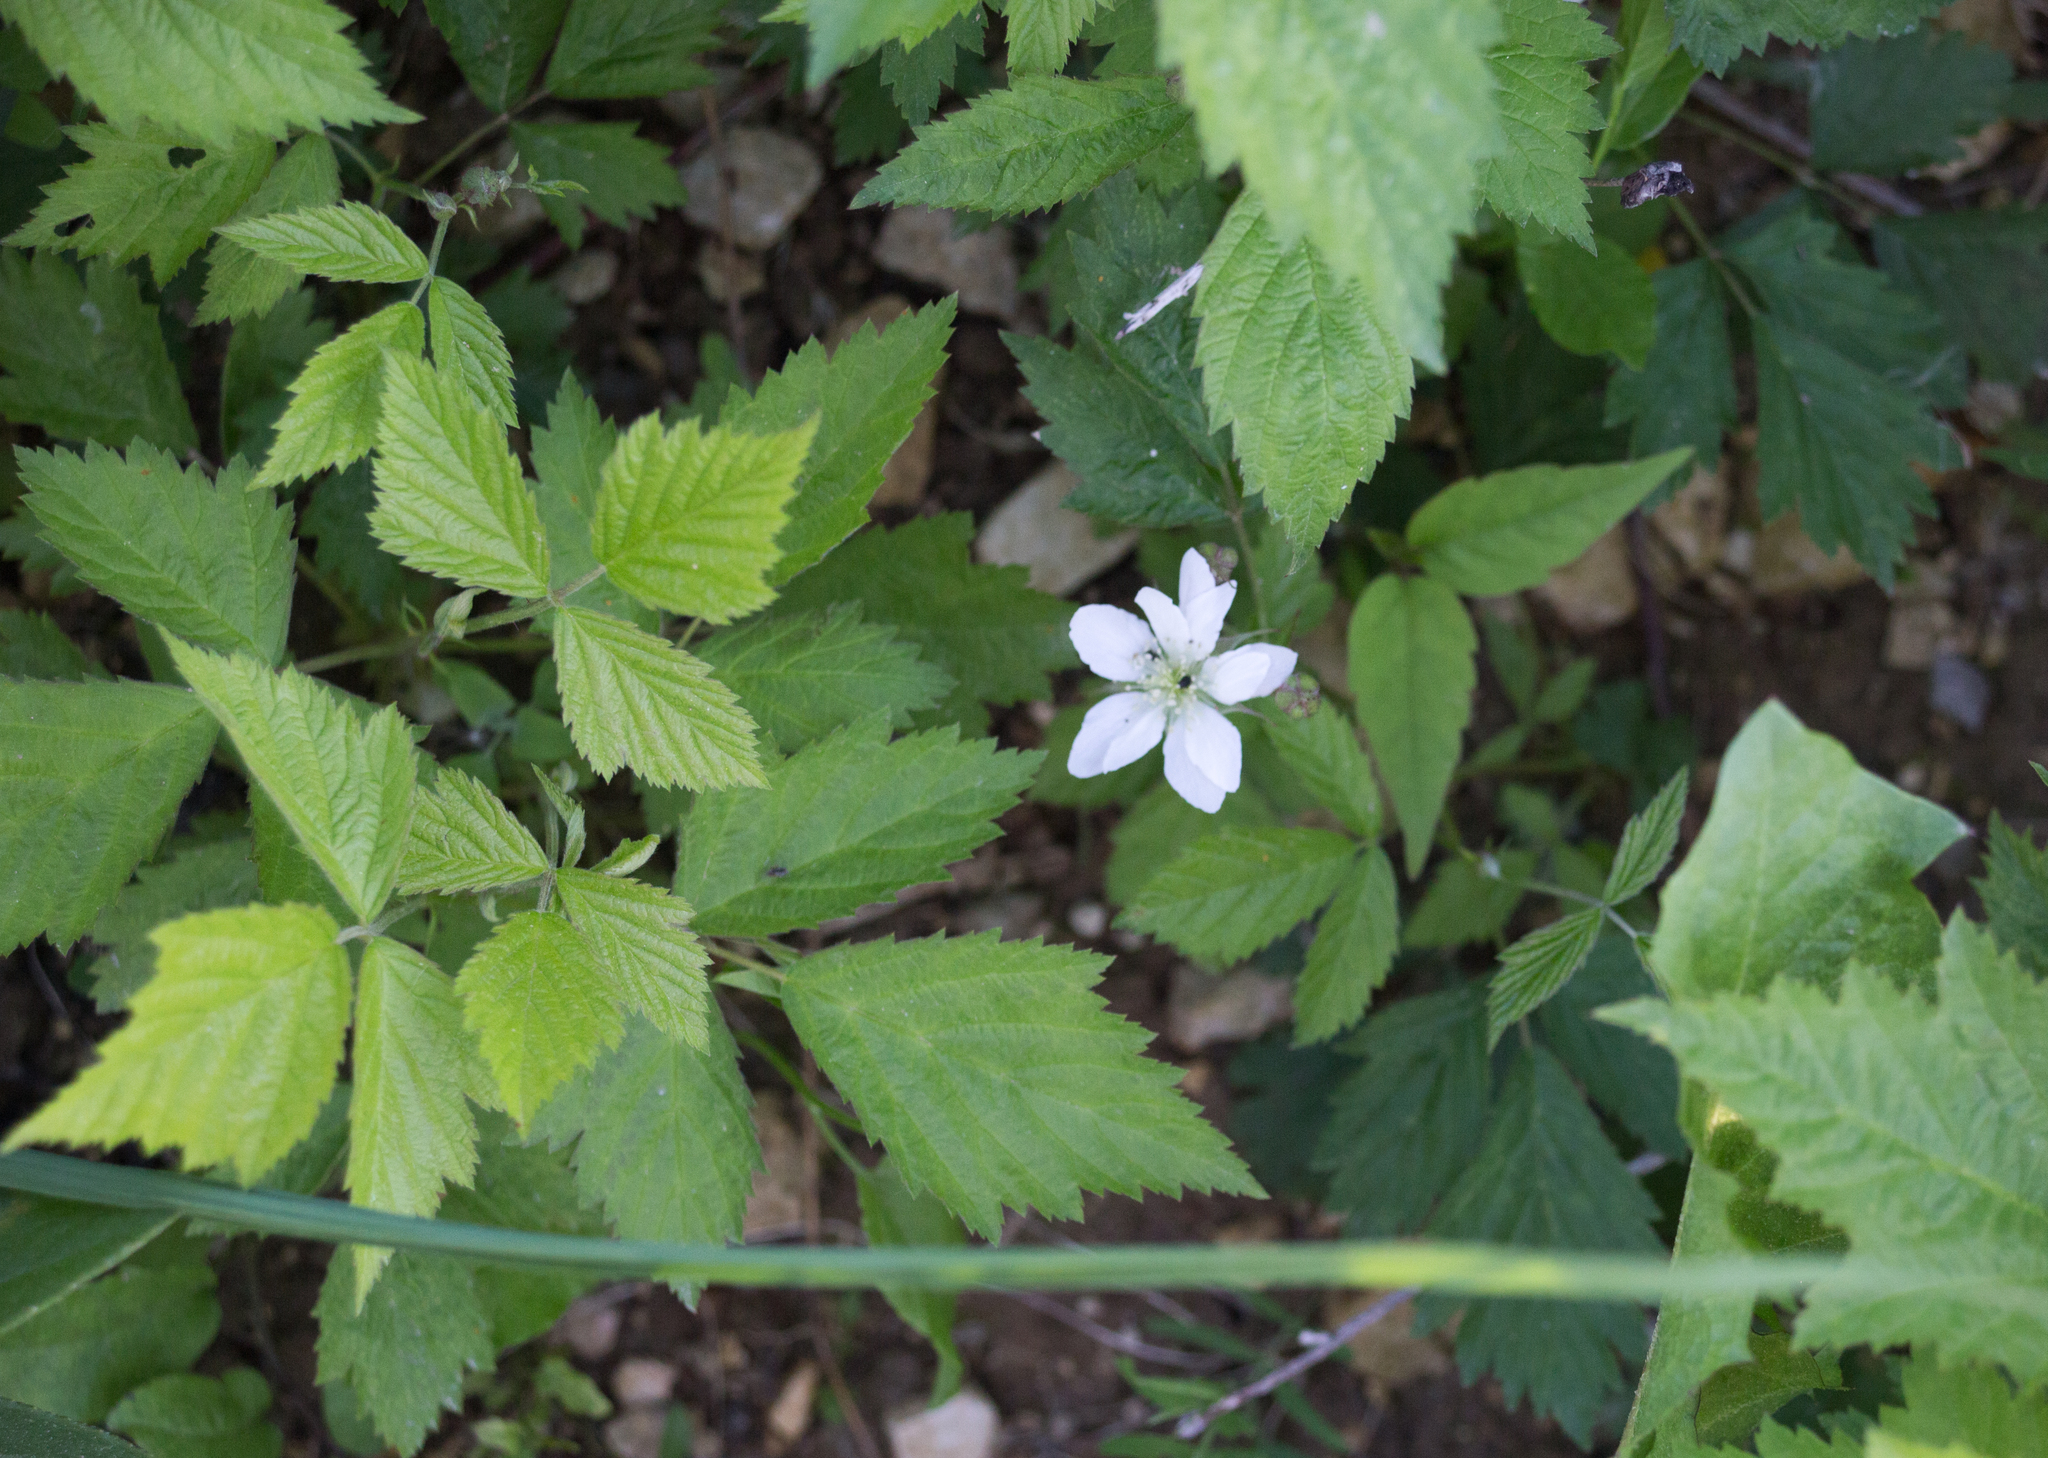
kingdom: Plantae
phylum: Tracheophyta
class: Magnoliopsida
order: Rosales
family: Rosaceae
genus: Rubus
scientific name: Rubus caesius
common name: Dewberry
